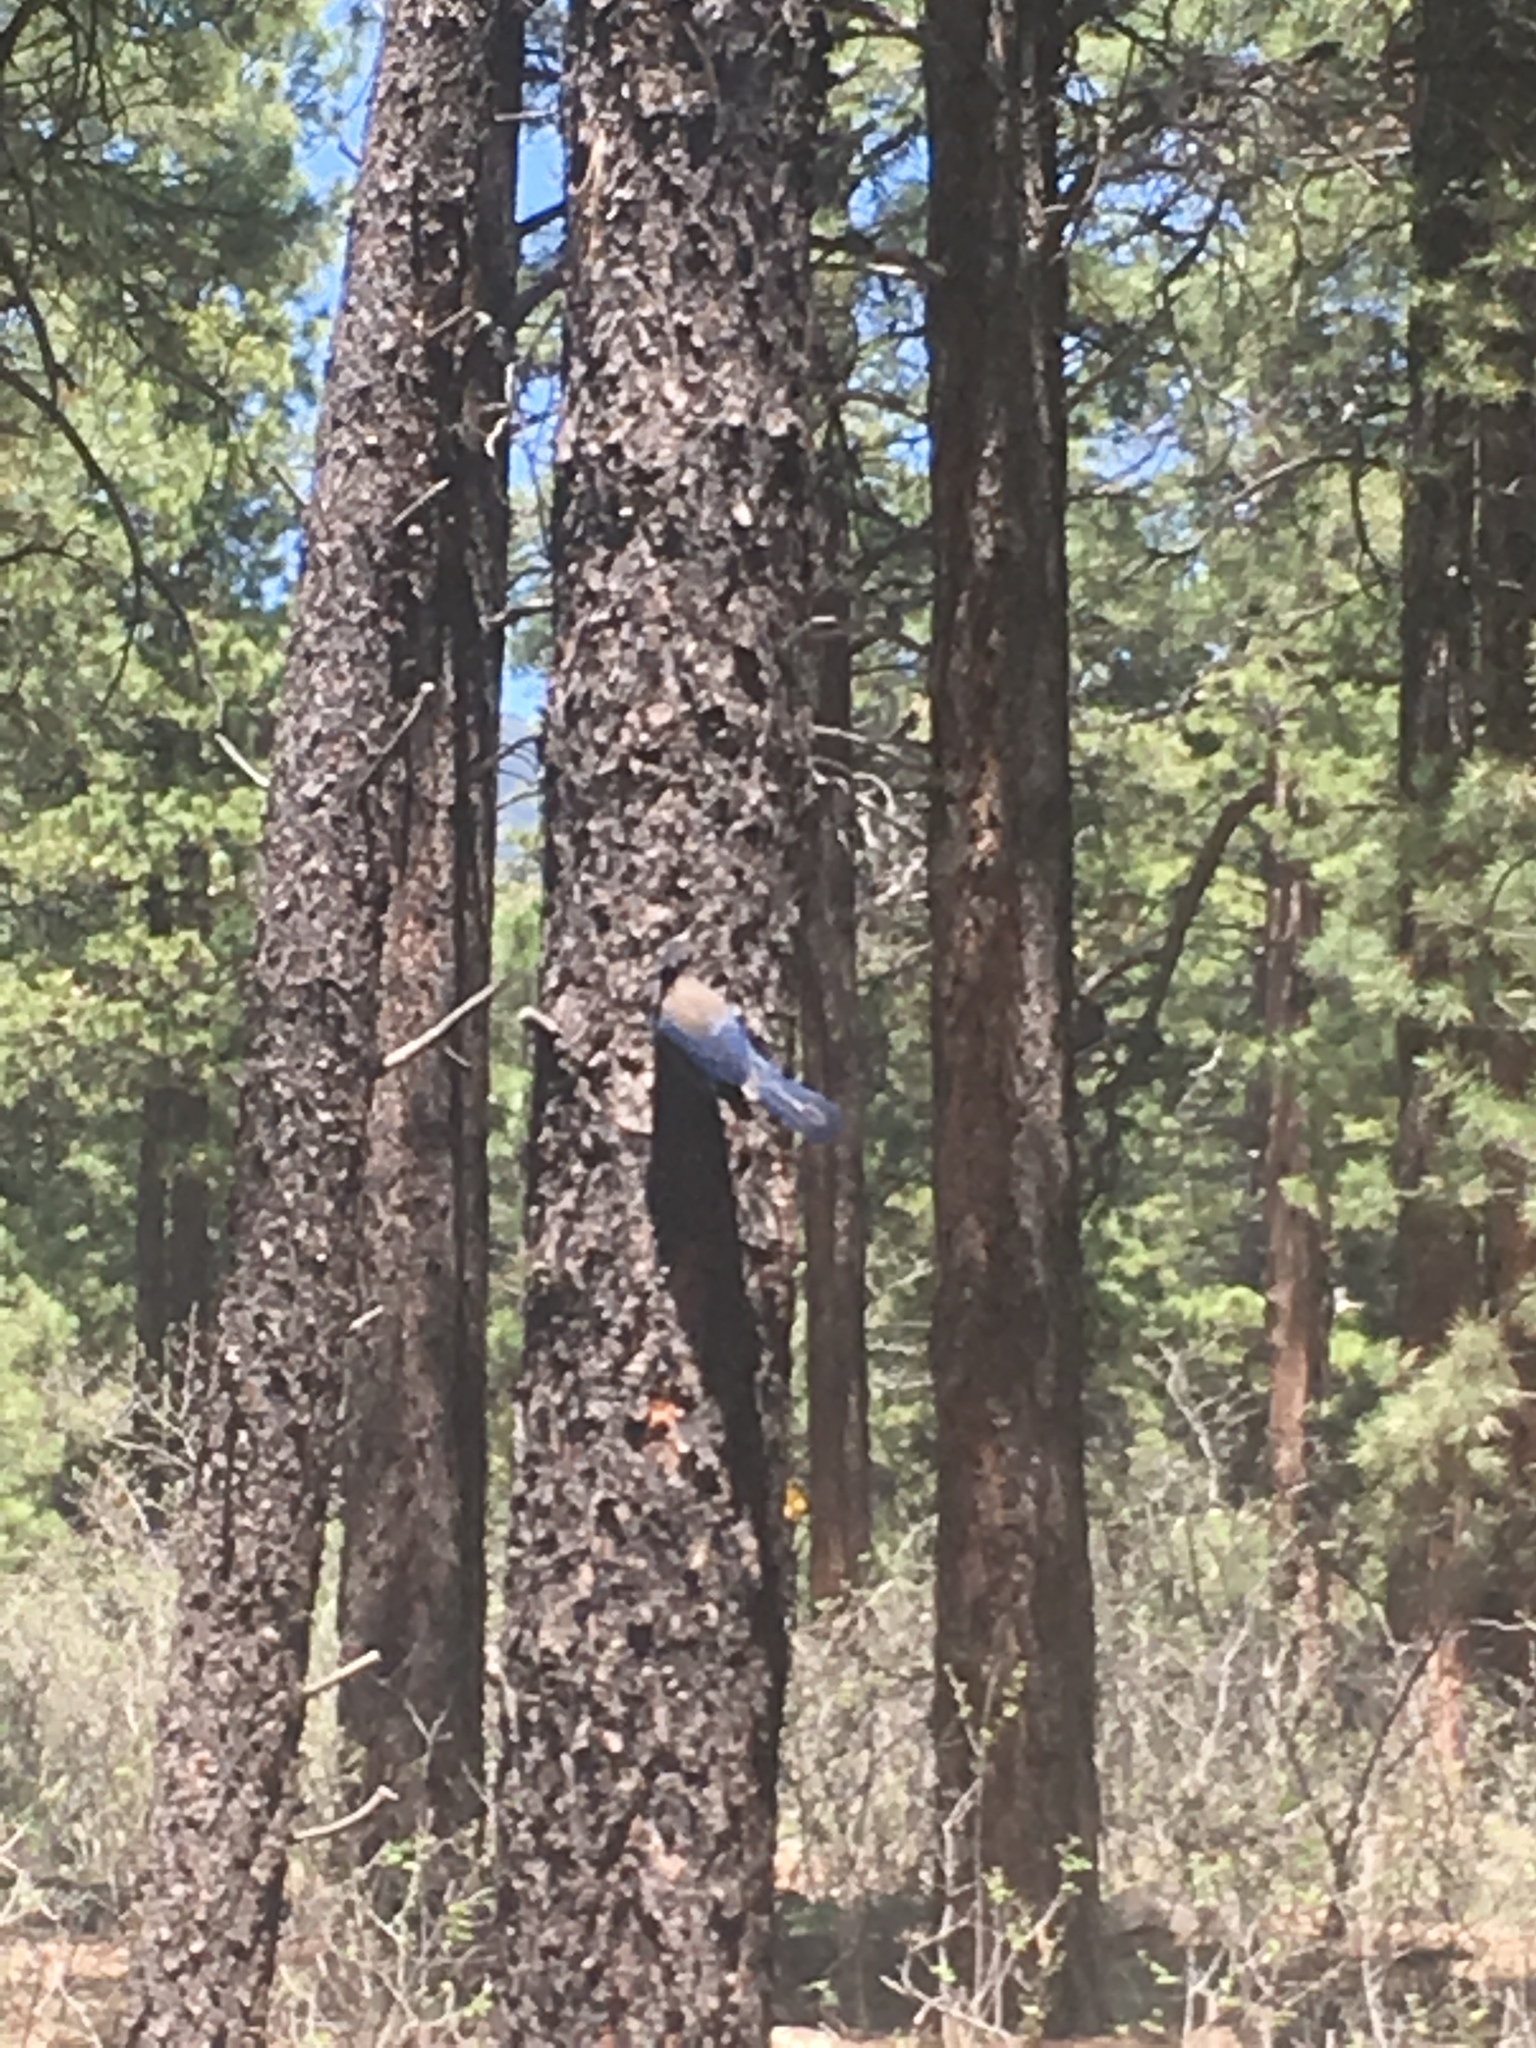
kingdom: Animalia
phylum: Chordata
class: Aves
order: Passeriformes
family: Corvidae
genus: Cyanocitta
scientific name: Cyanocitta stelleri
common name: Steller's jay
